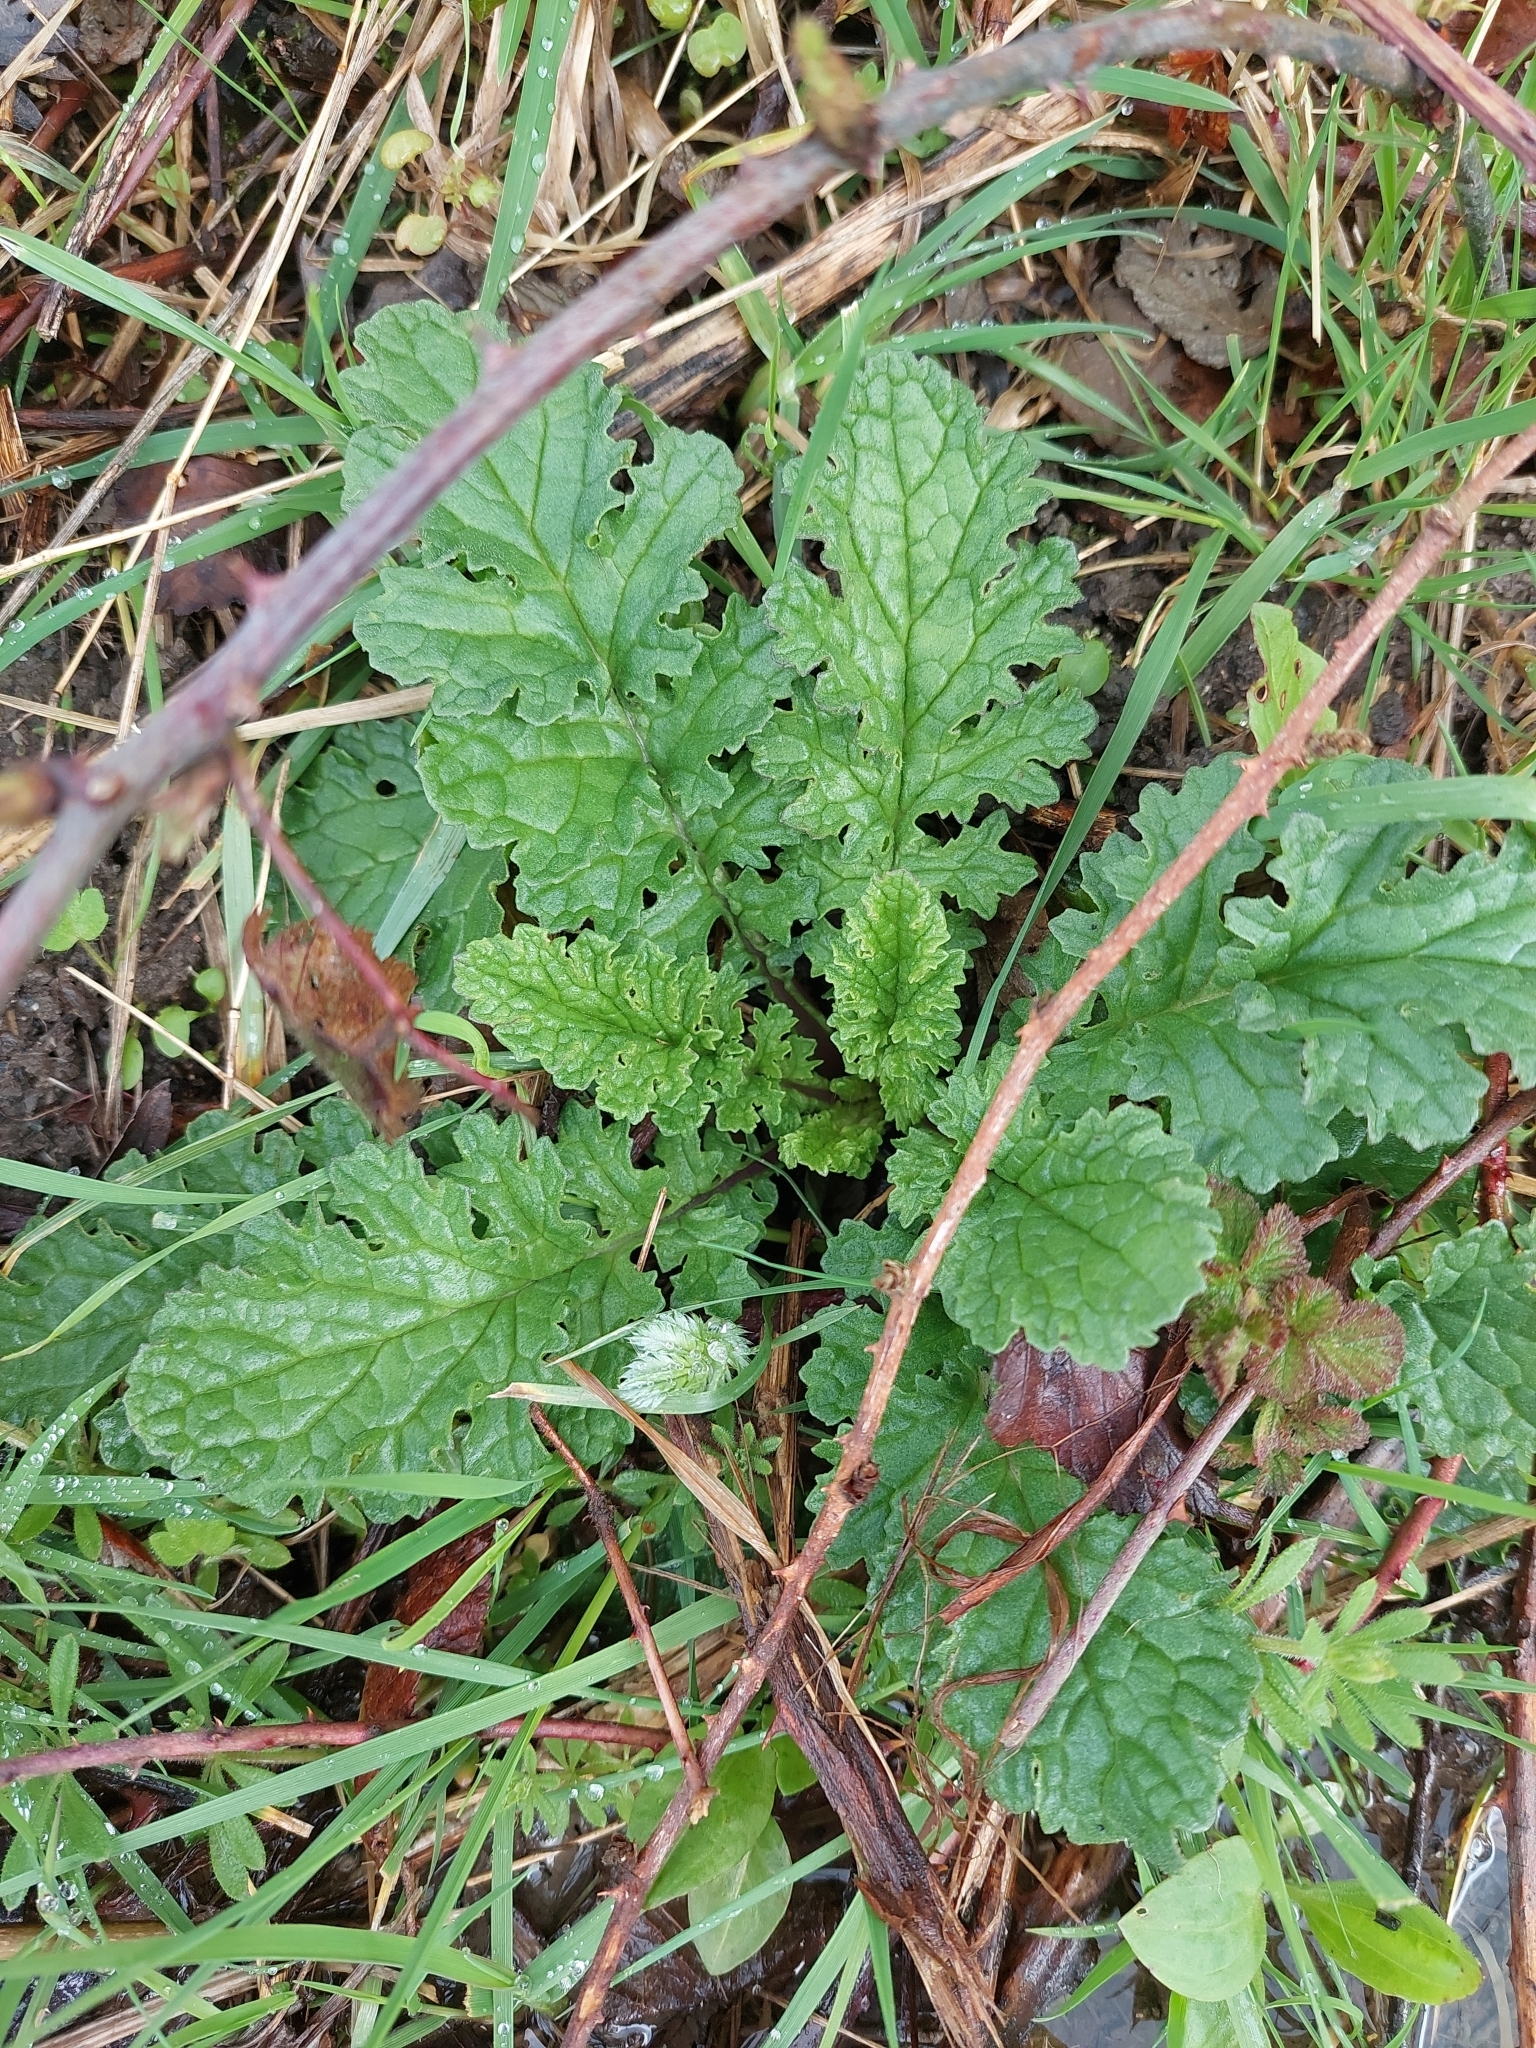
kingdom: Plantae
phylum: Tracheophyta
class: Magnoliopsida
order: Asterales
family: Asteraceae
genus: Jacobaea
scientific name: Jacobaea vulgaris
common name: Stinking willie
